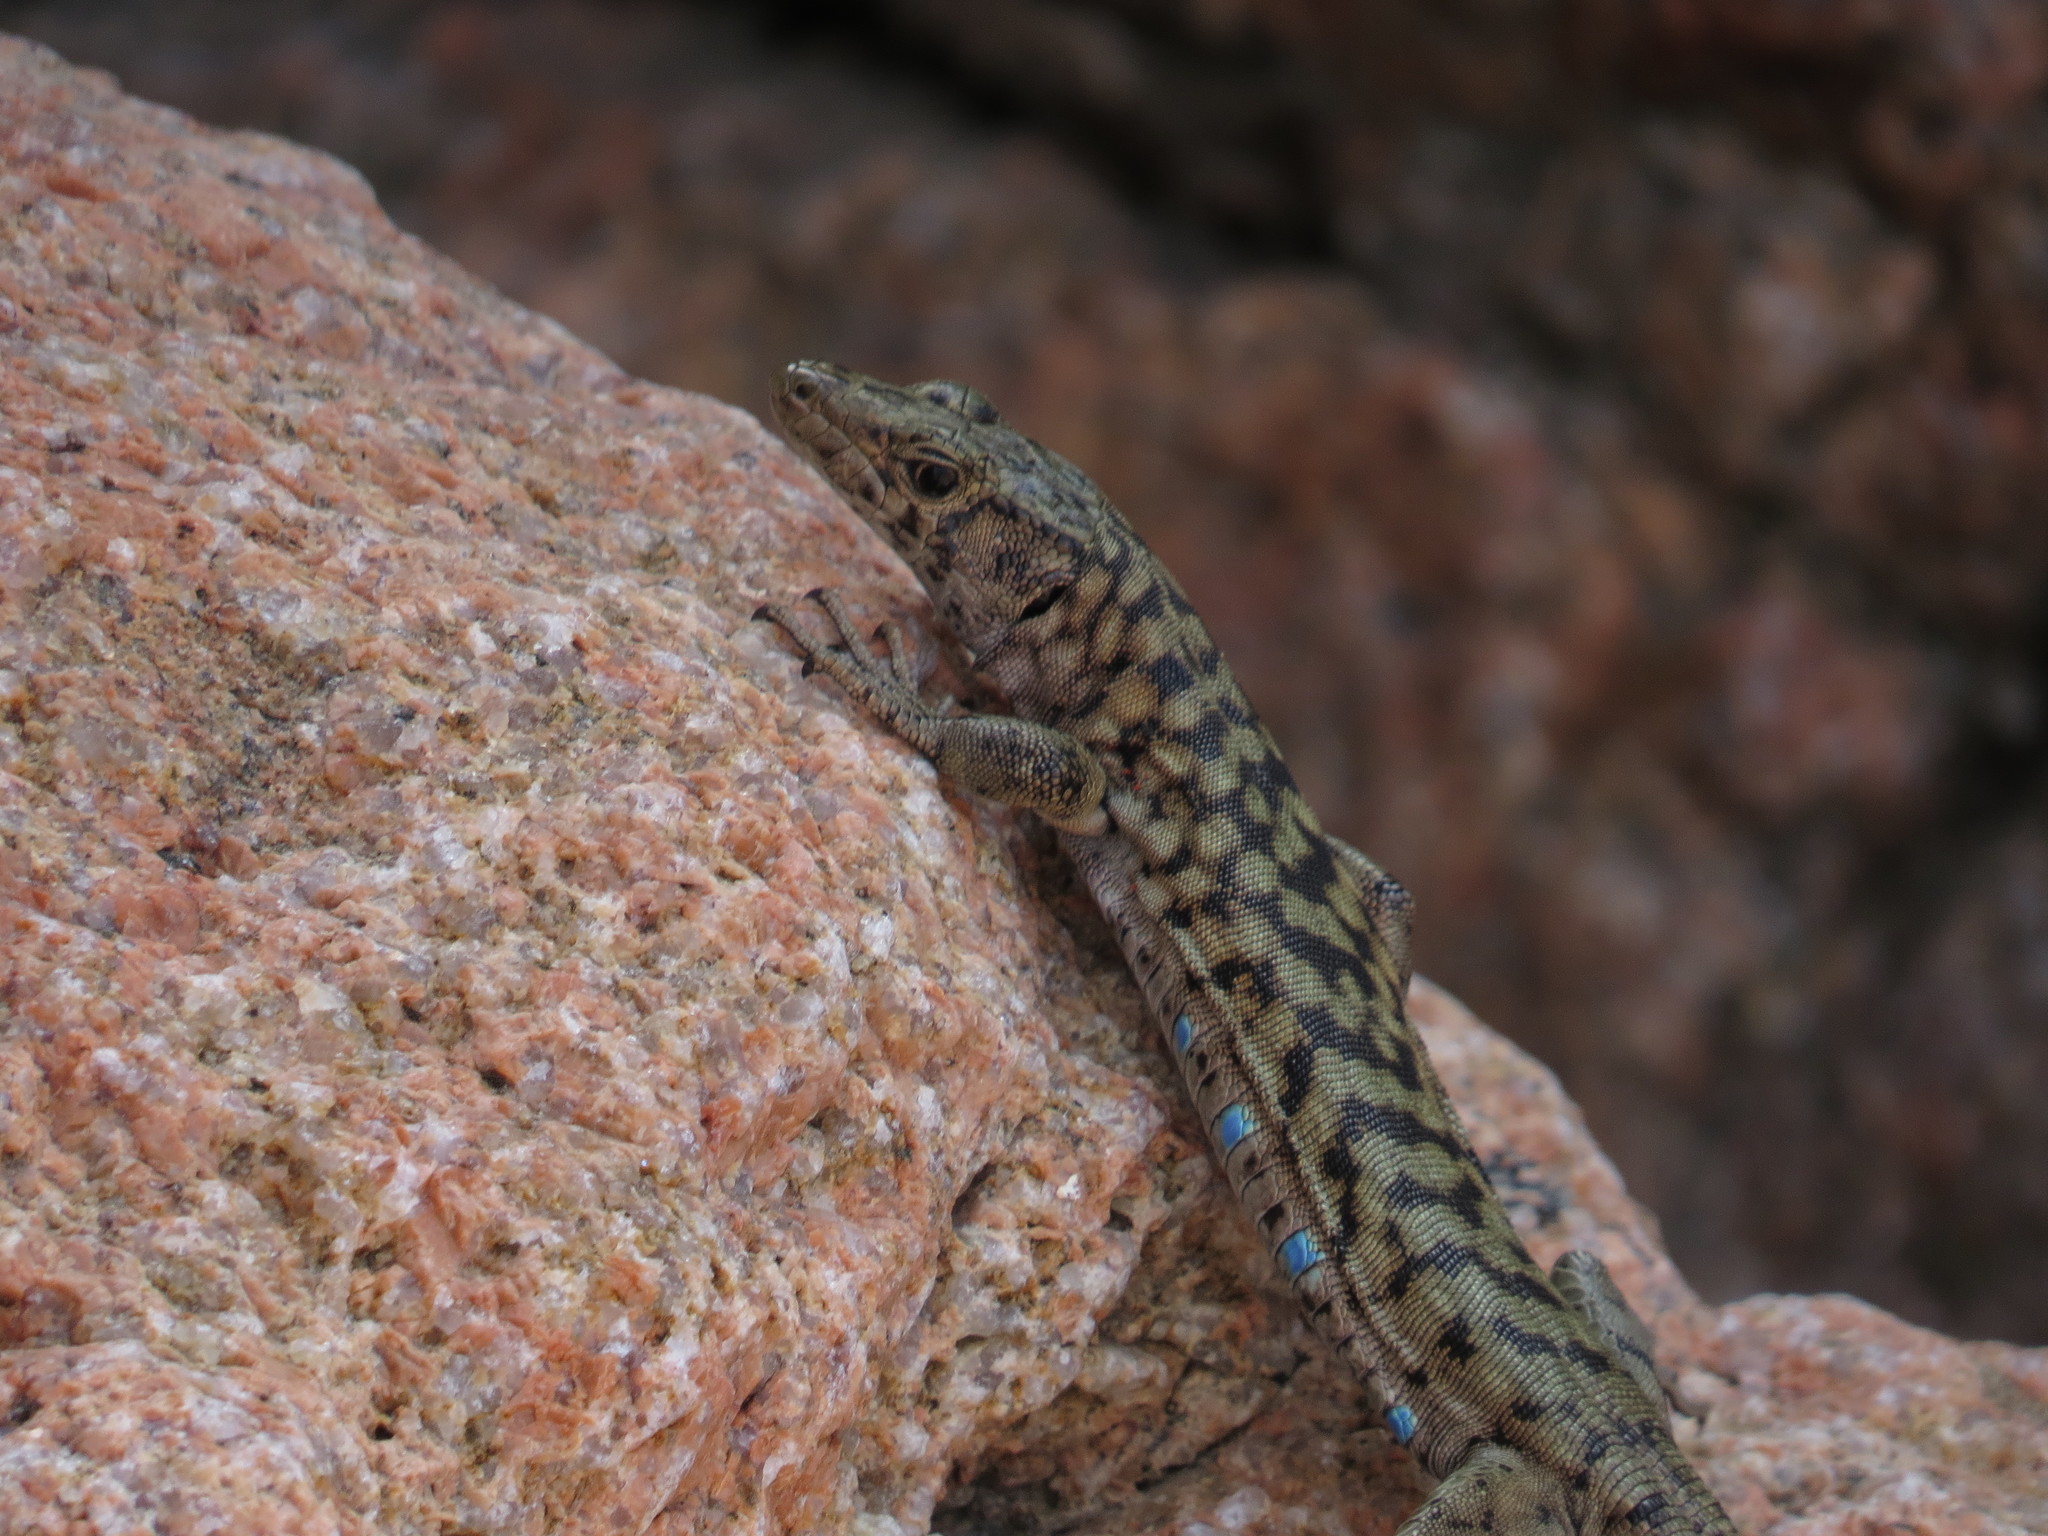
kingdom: Animalia
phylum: Chordata
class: Squamata
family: Lacertidae
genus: Archaeolacerta
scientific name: Archaeolacerta bedriagae
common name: Bedriaga's rock lizard
